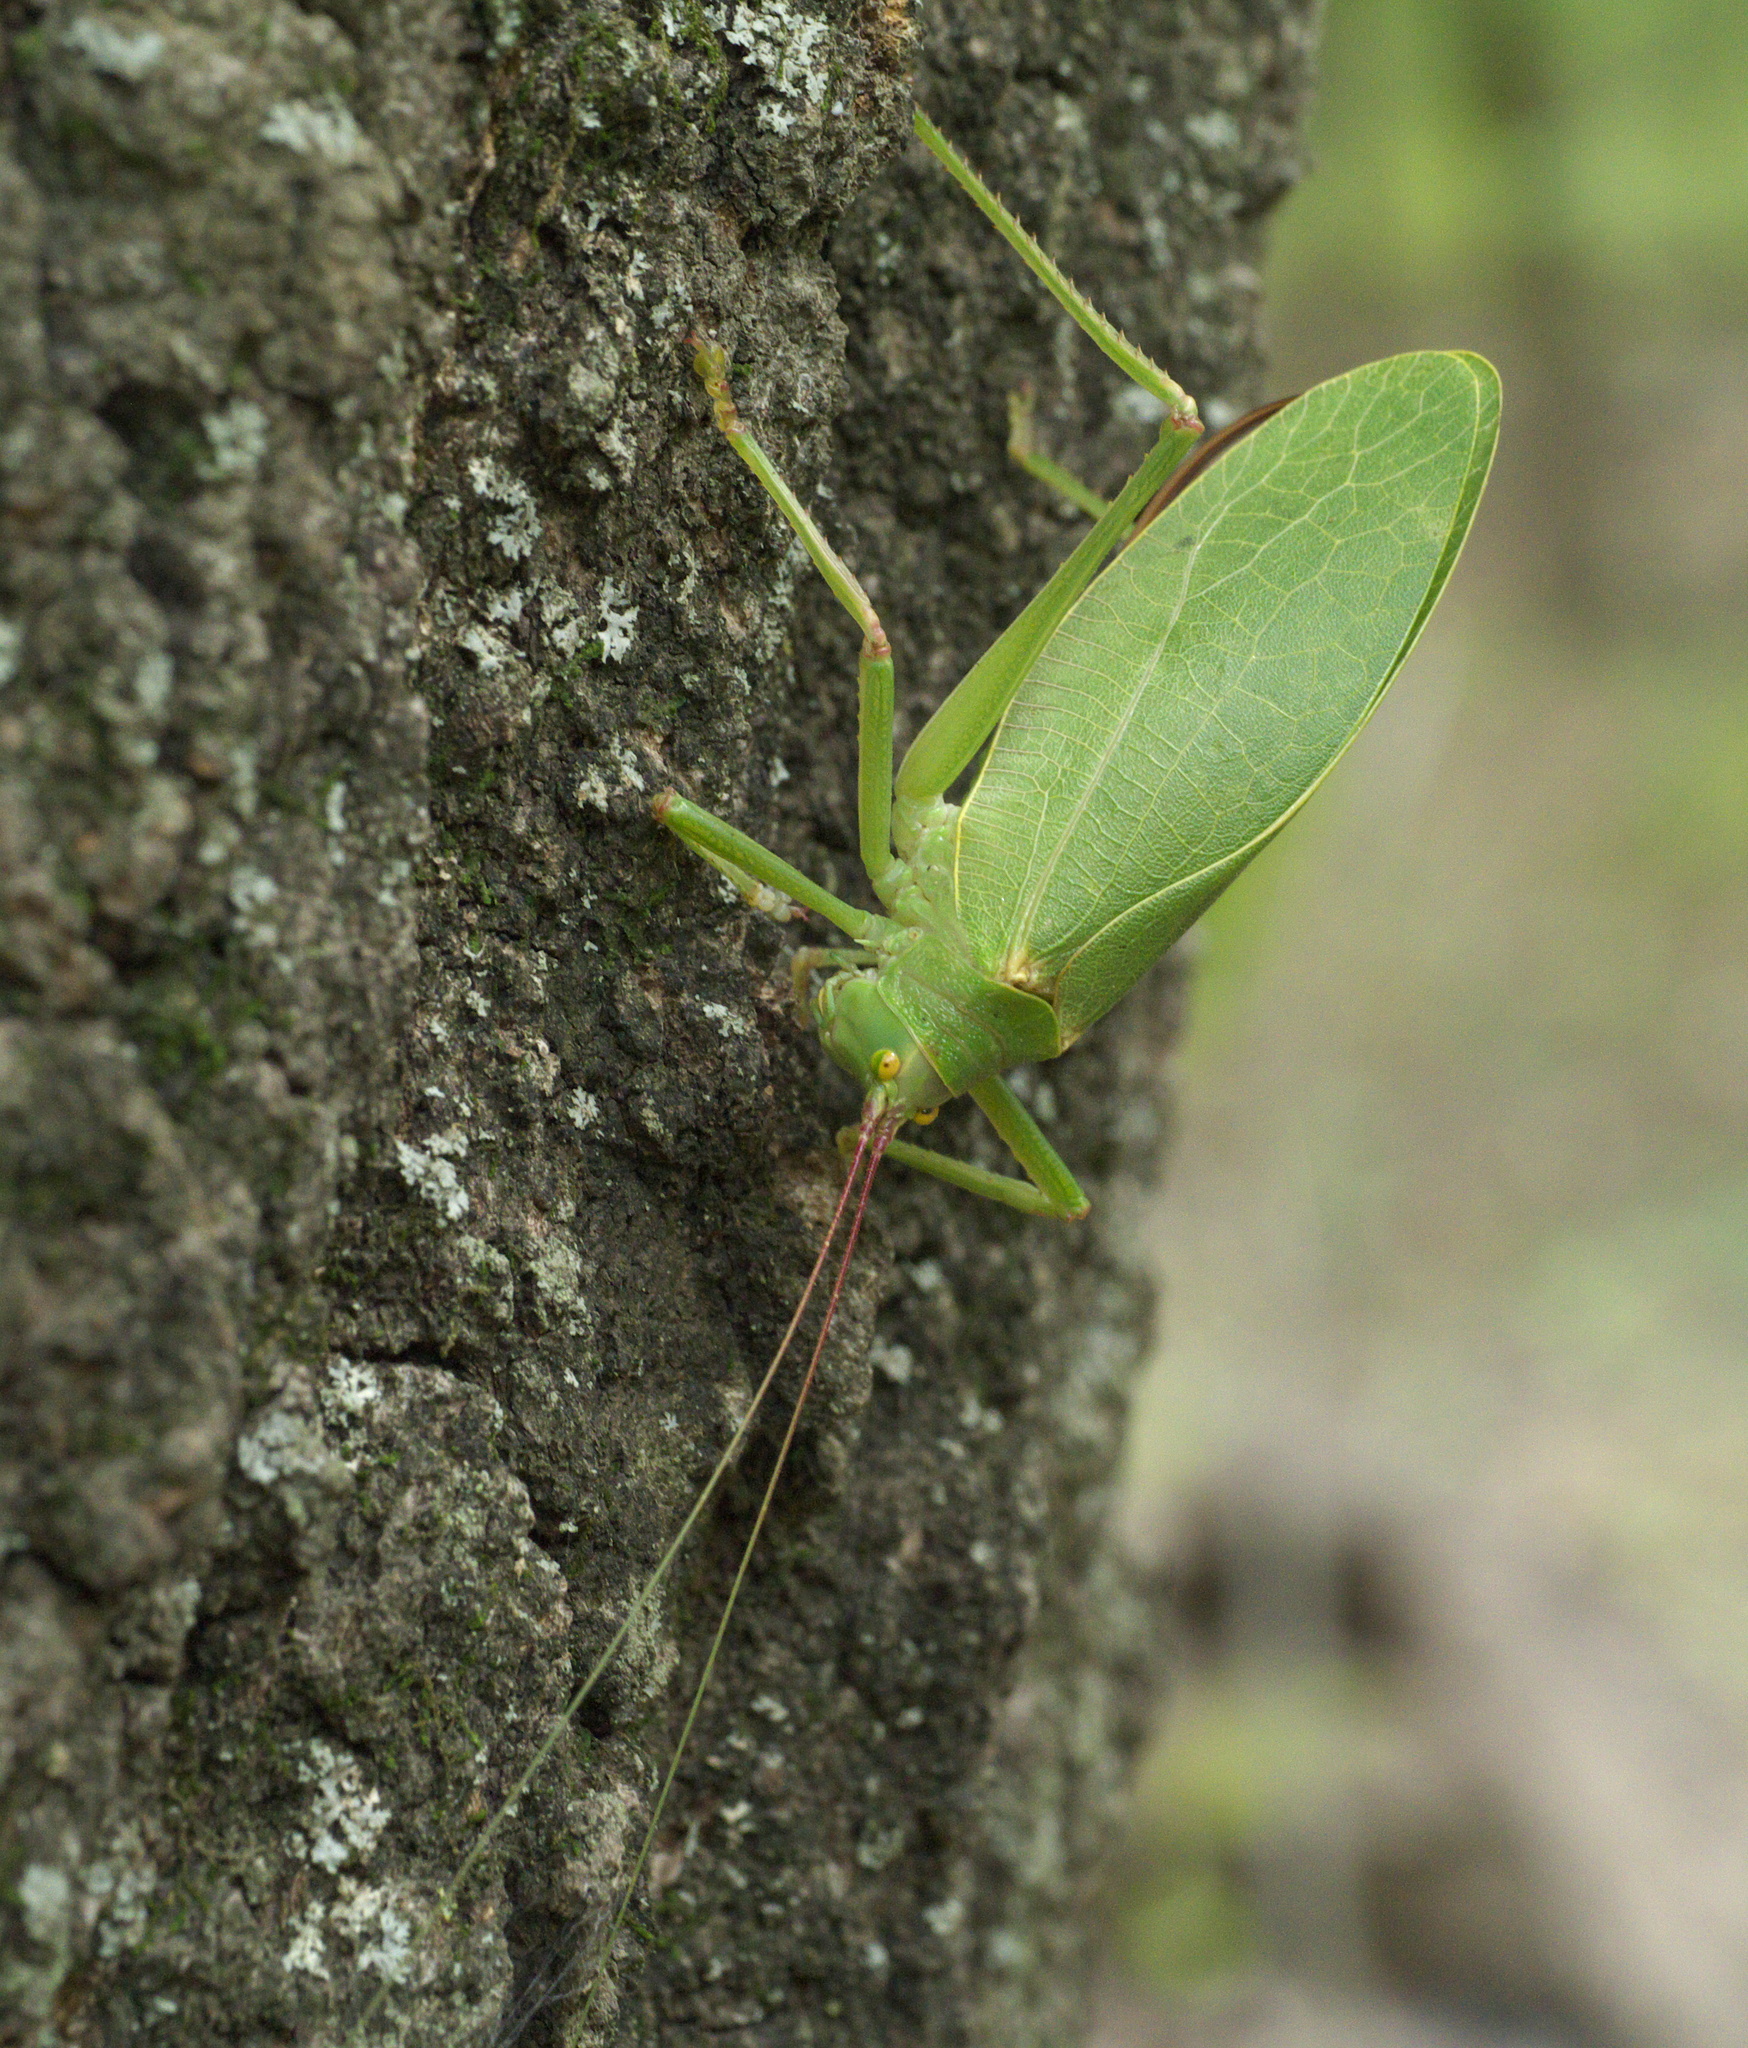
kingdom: Animalia
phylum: Arthropoda
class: Insecta
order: Orthoptera
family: Tettigoniidae
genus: Pterophylla
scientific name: Pterophylla camellifolia
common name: Common true katydid
